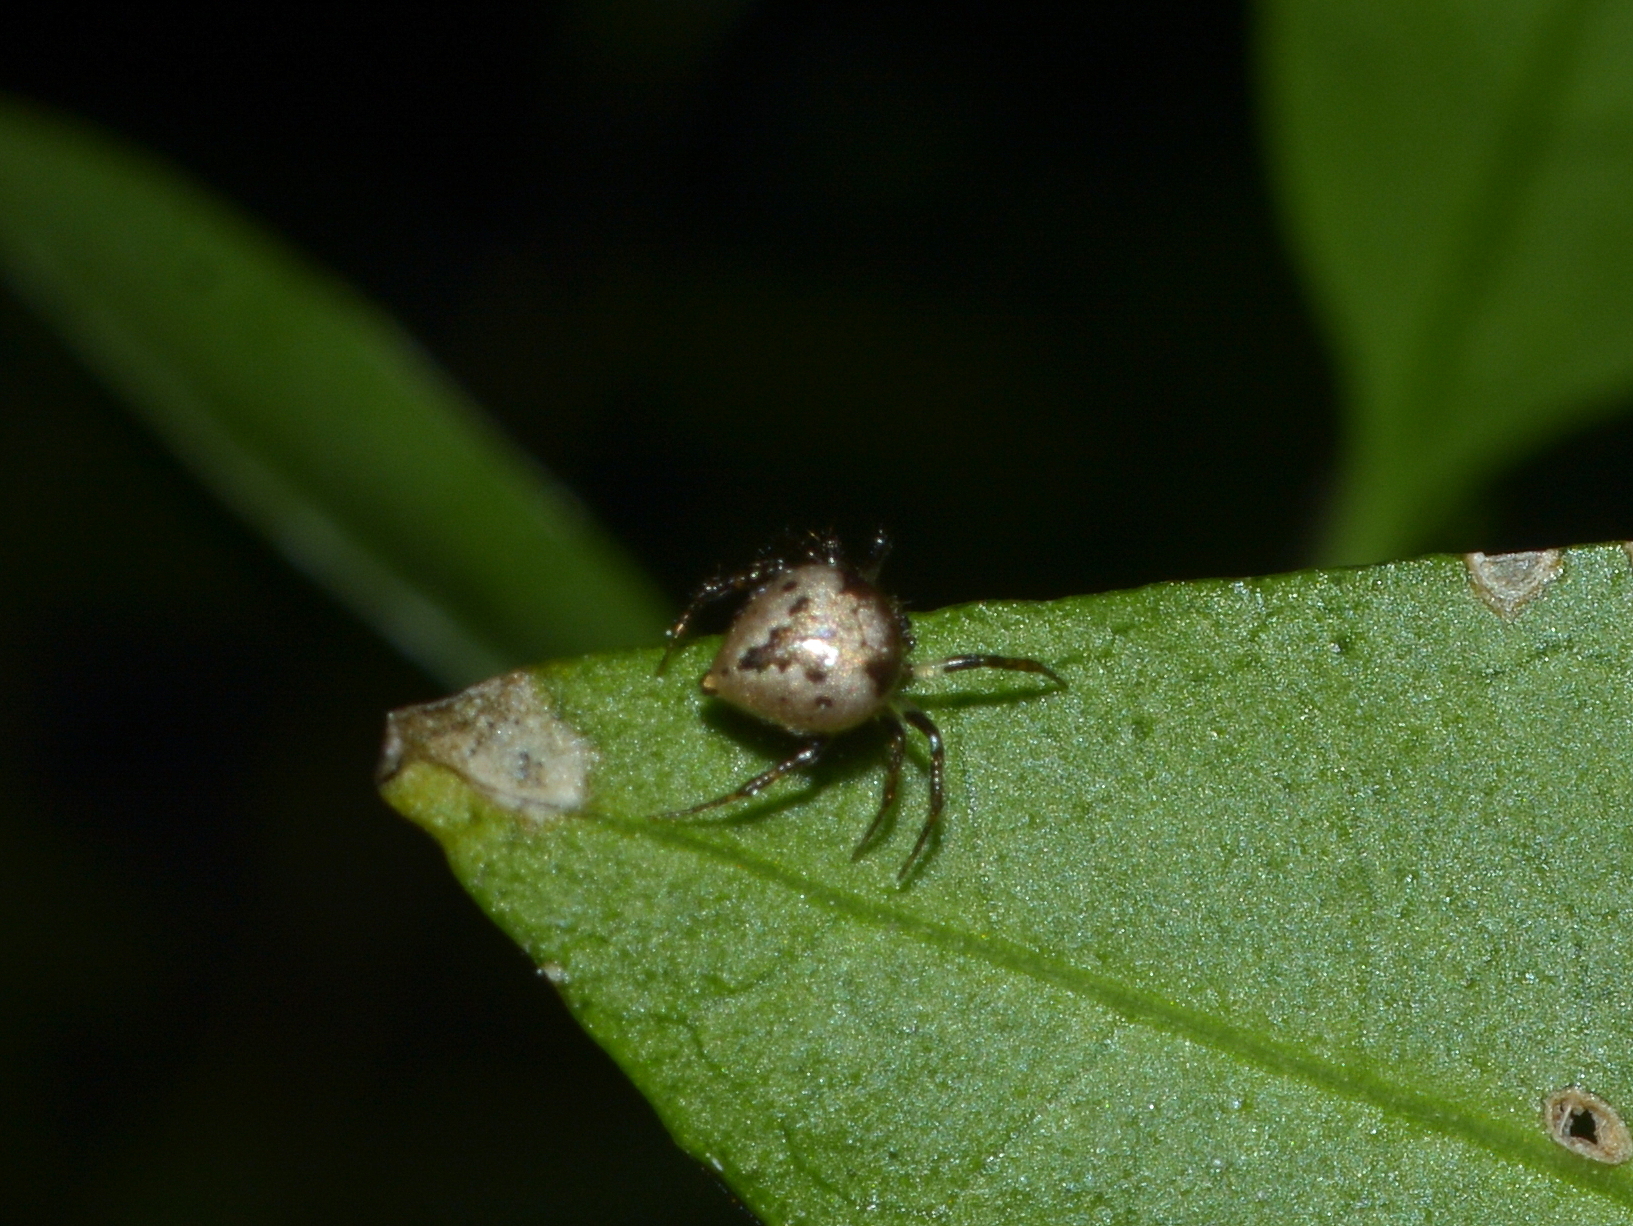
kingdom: Animalia
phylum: Arthropoda
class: Arachnida
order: Araneae
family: Theridiidae
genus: Emertonella
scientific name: Emertonella taczanowskii
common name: Cobweb spiders
